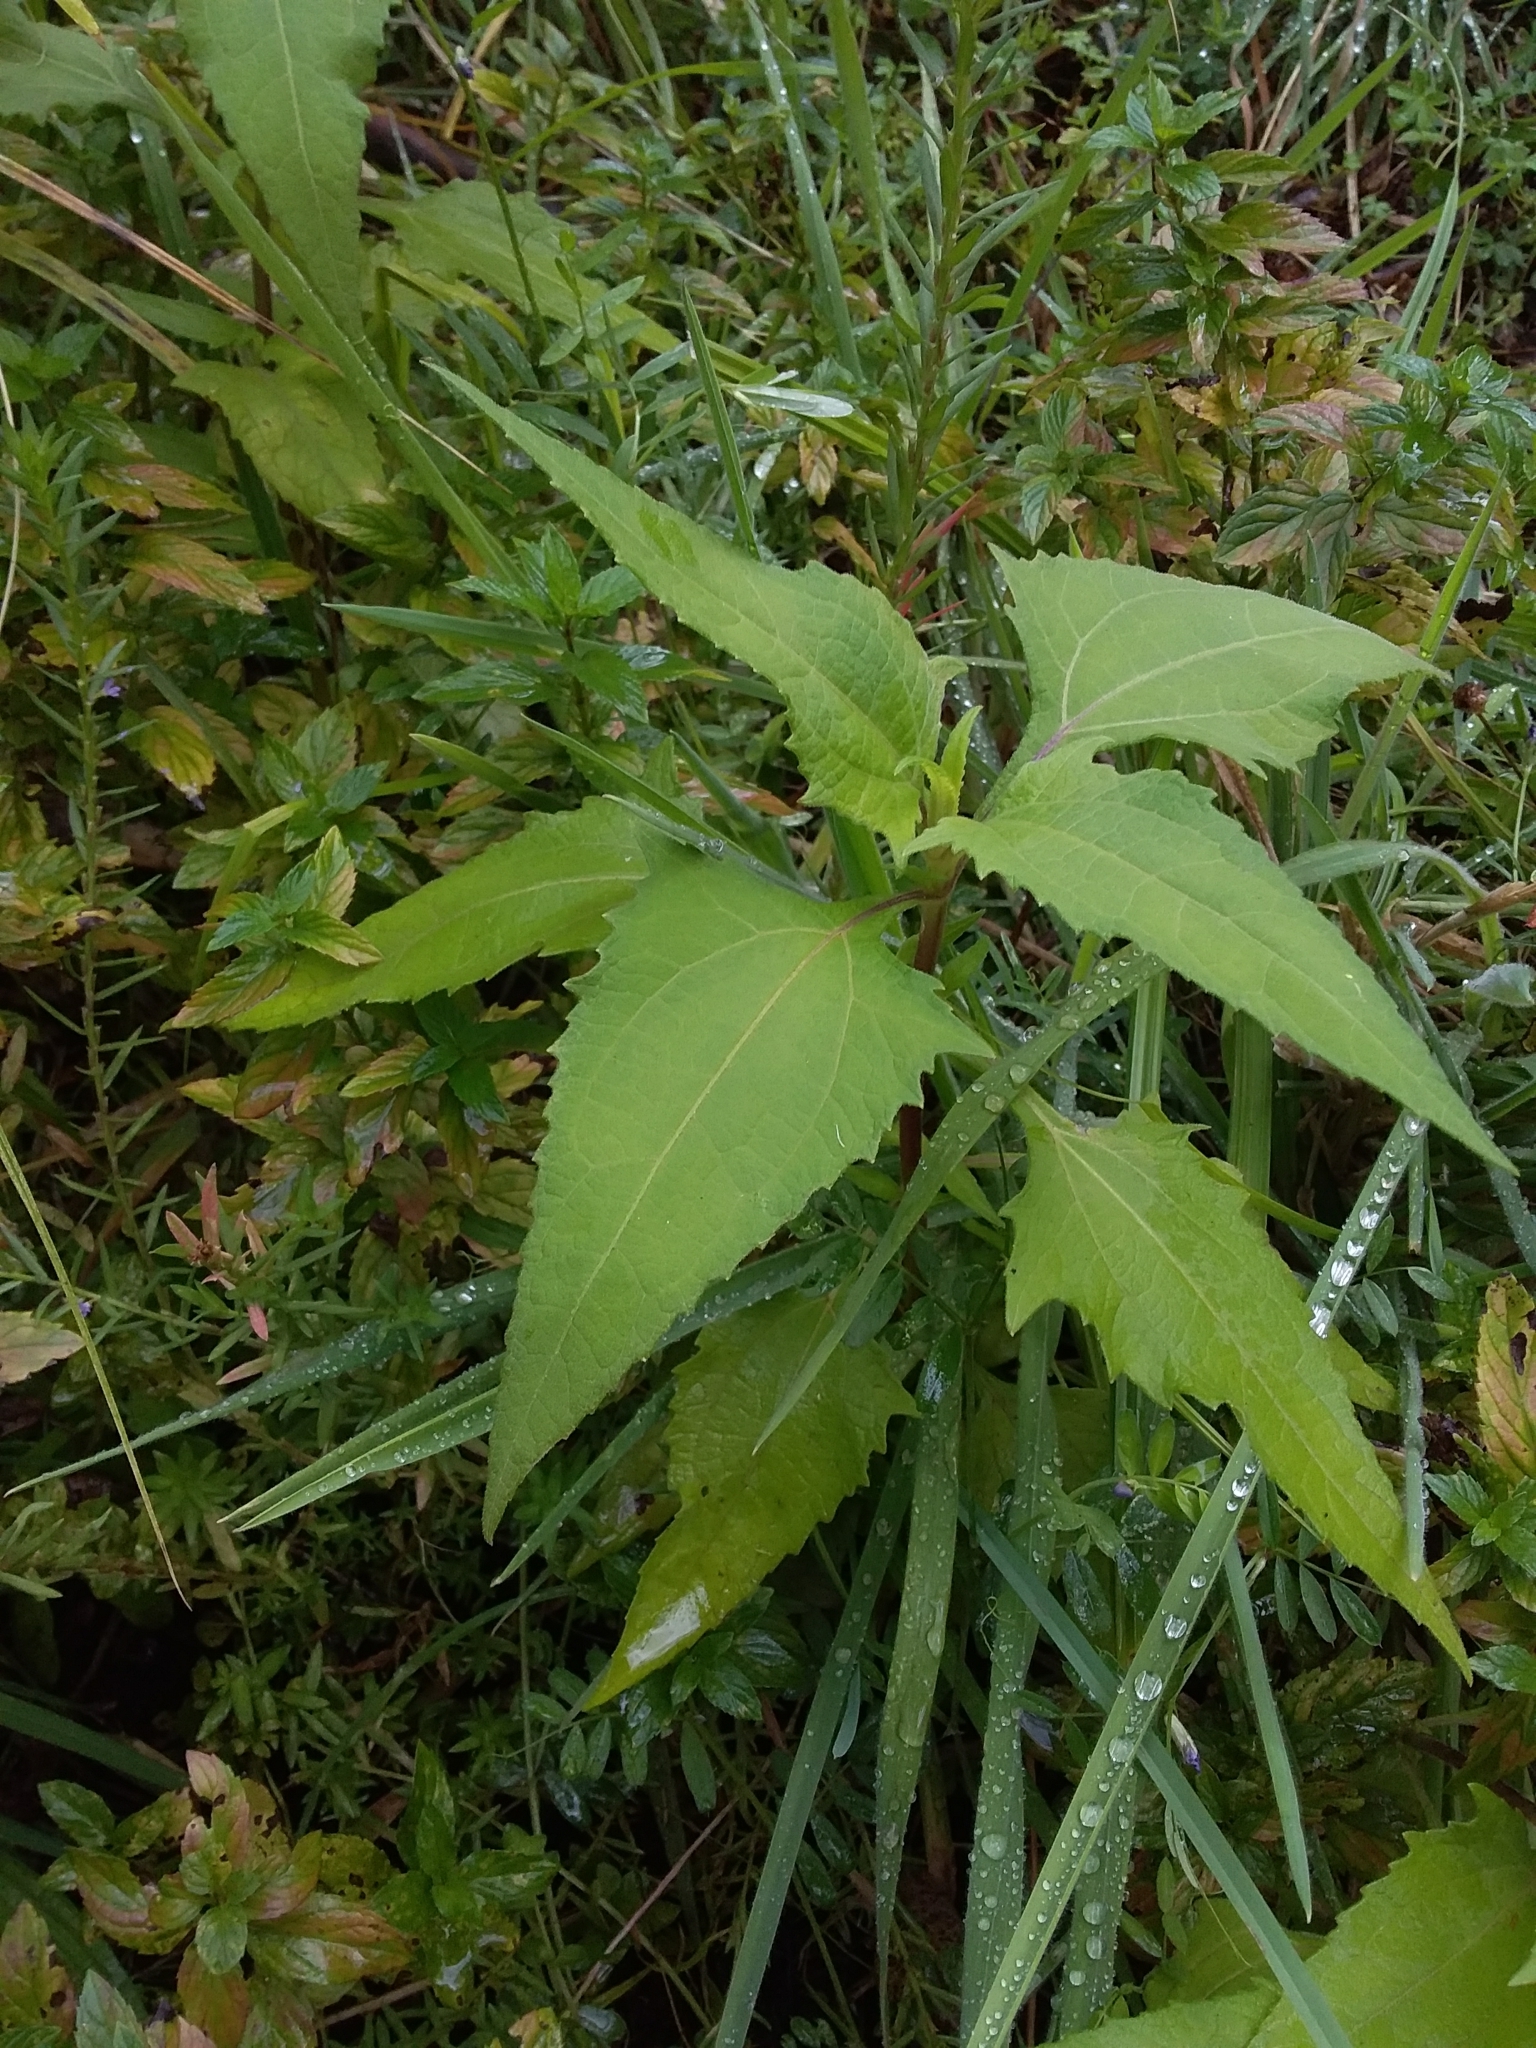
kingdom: Plantae
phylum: Tracheophyta
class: Magnoliopsida
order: Asterales
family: Asteraceae
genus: Sigesbeckia
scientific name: Sigesbeckia orientalis
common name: Eastern st paul's-wort
